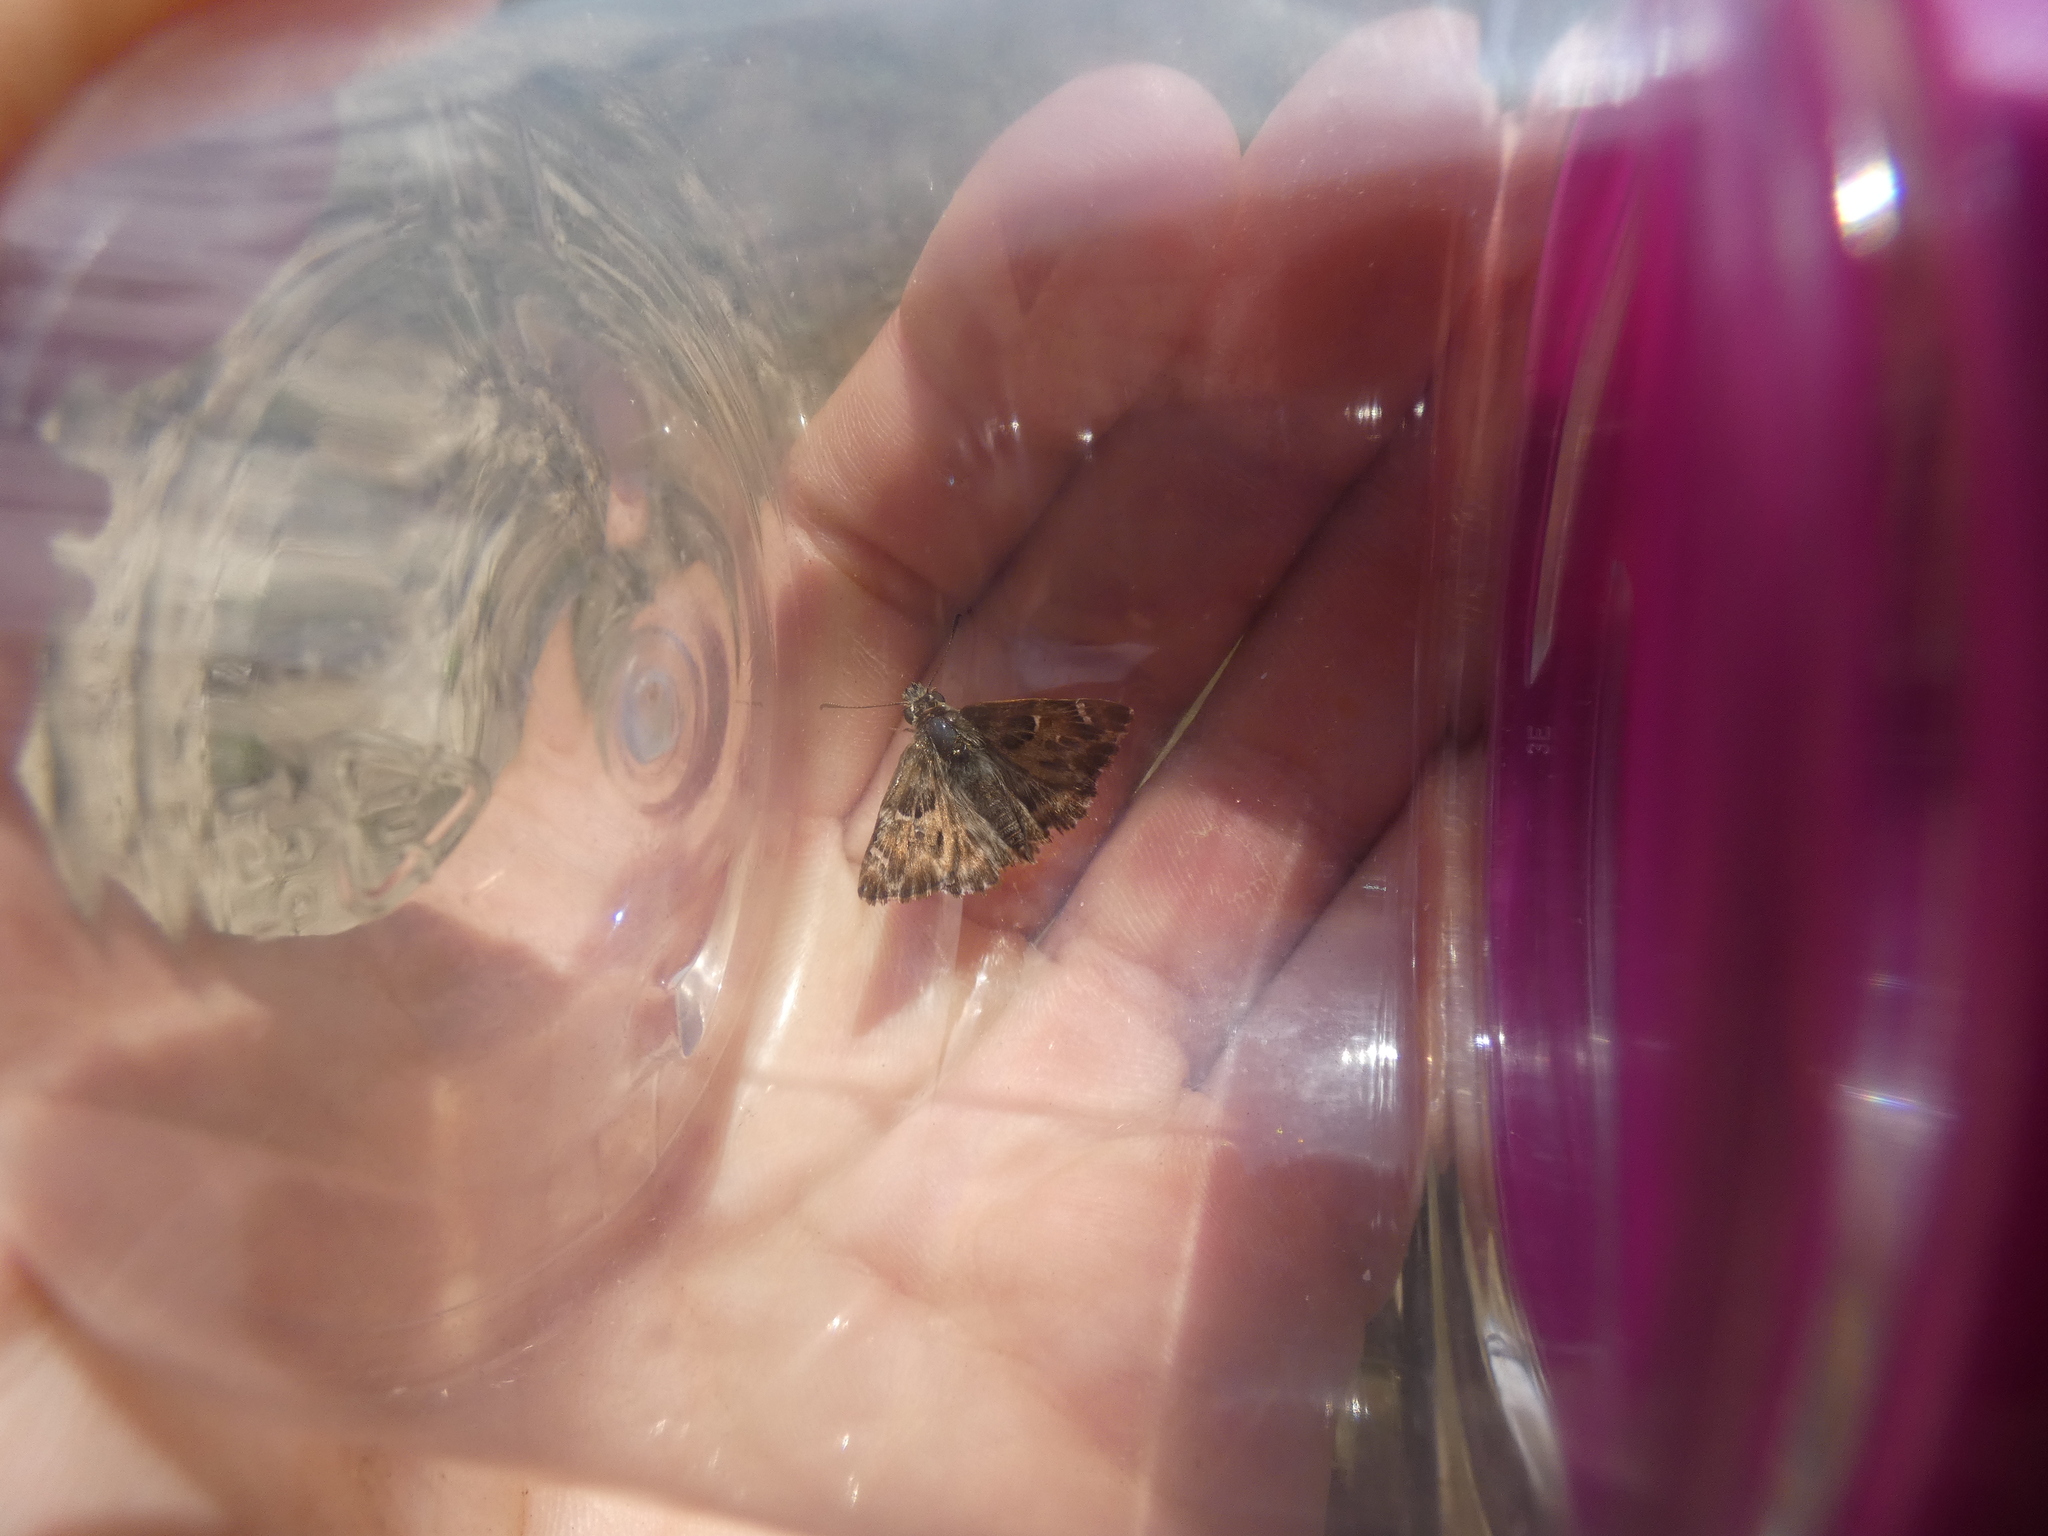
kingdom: Animalia
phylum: Arthropoda
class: Insecta
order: Lepidoptera
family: Hesperiidae
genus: Carcharodus
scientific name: Carcharodus alceae
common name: Mallow skipper
